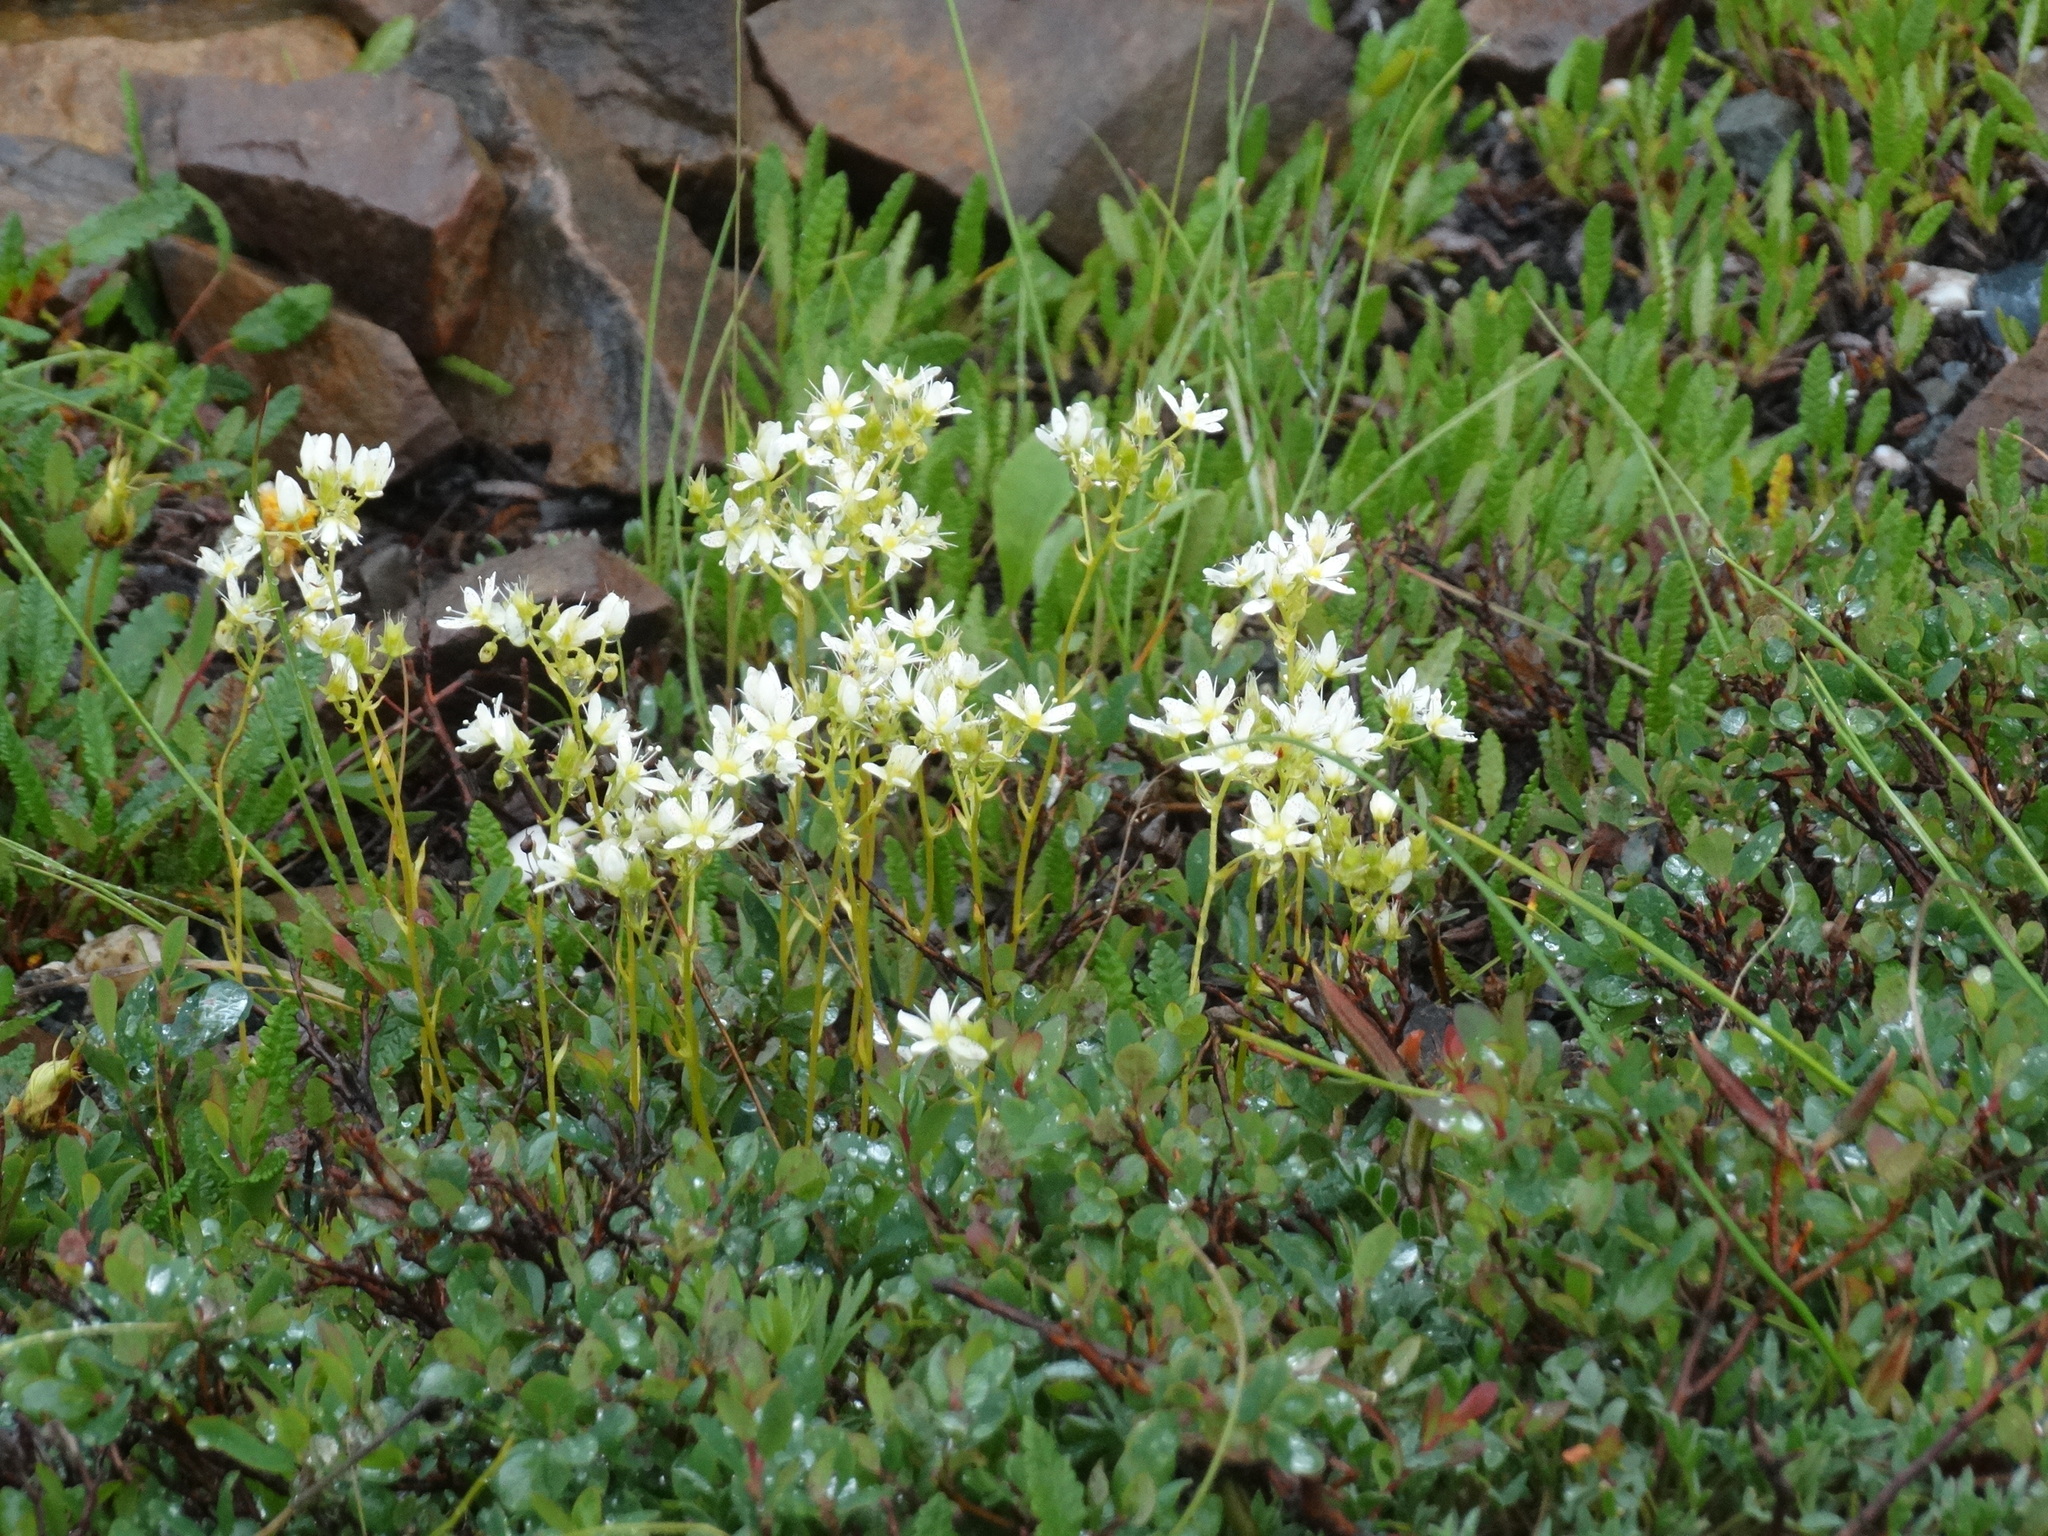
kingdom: Plantae
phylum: Tracheophyta
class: Magnoliopsida
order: Saxifragales
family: Saxifragaceae
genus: Saxifraga
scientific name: Saxifraga tricuspidata
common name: Prickly saxifrage
